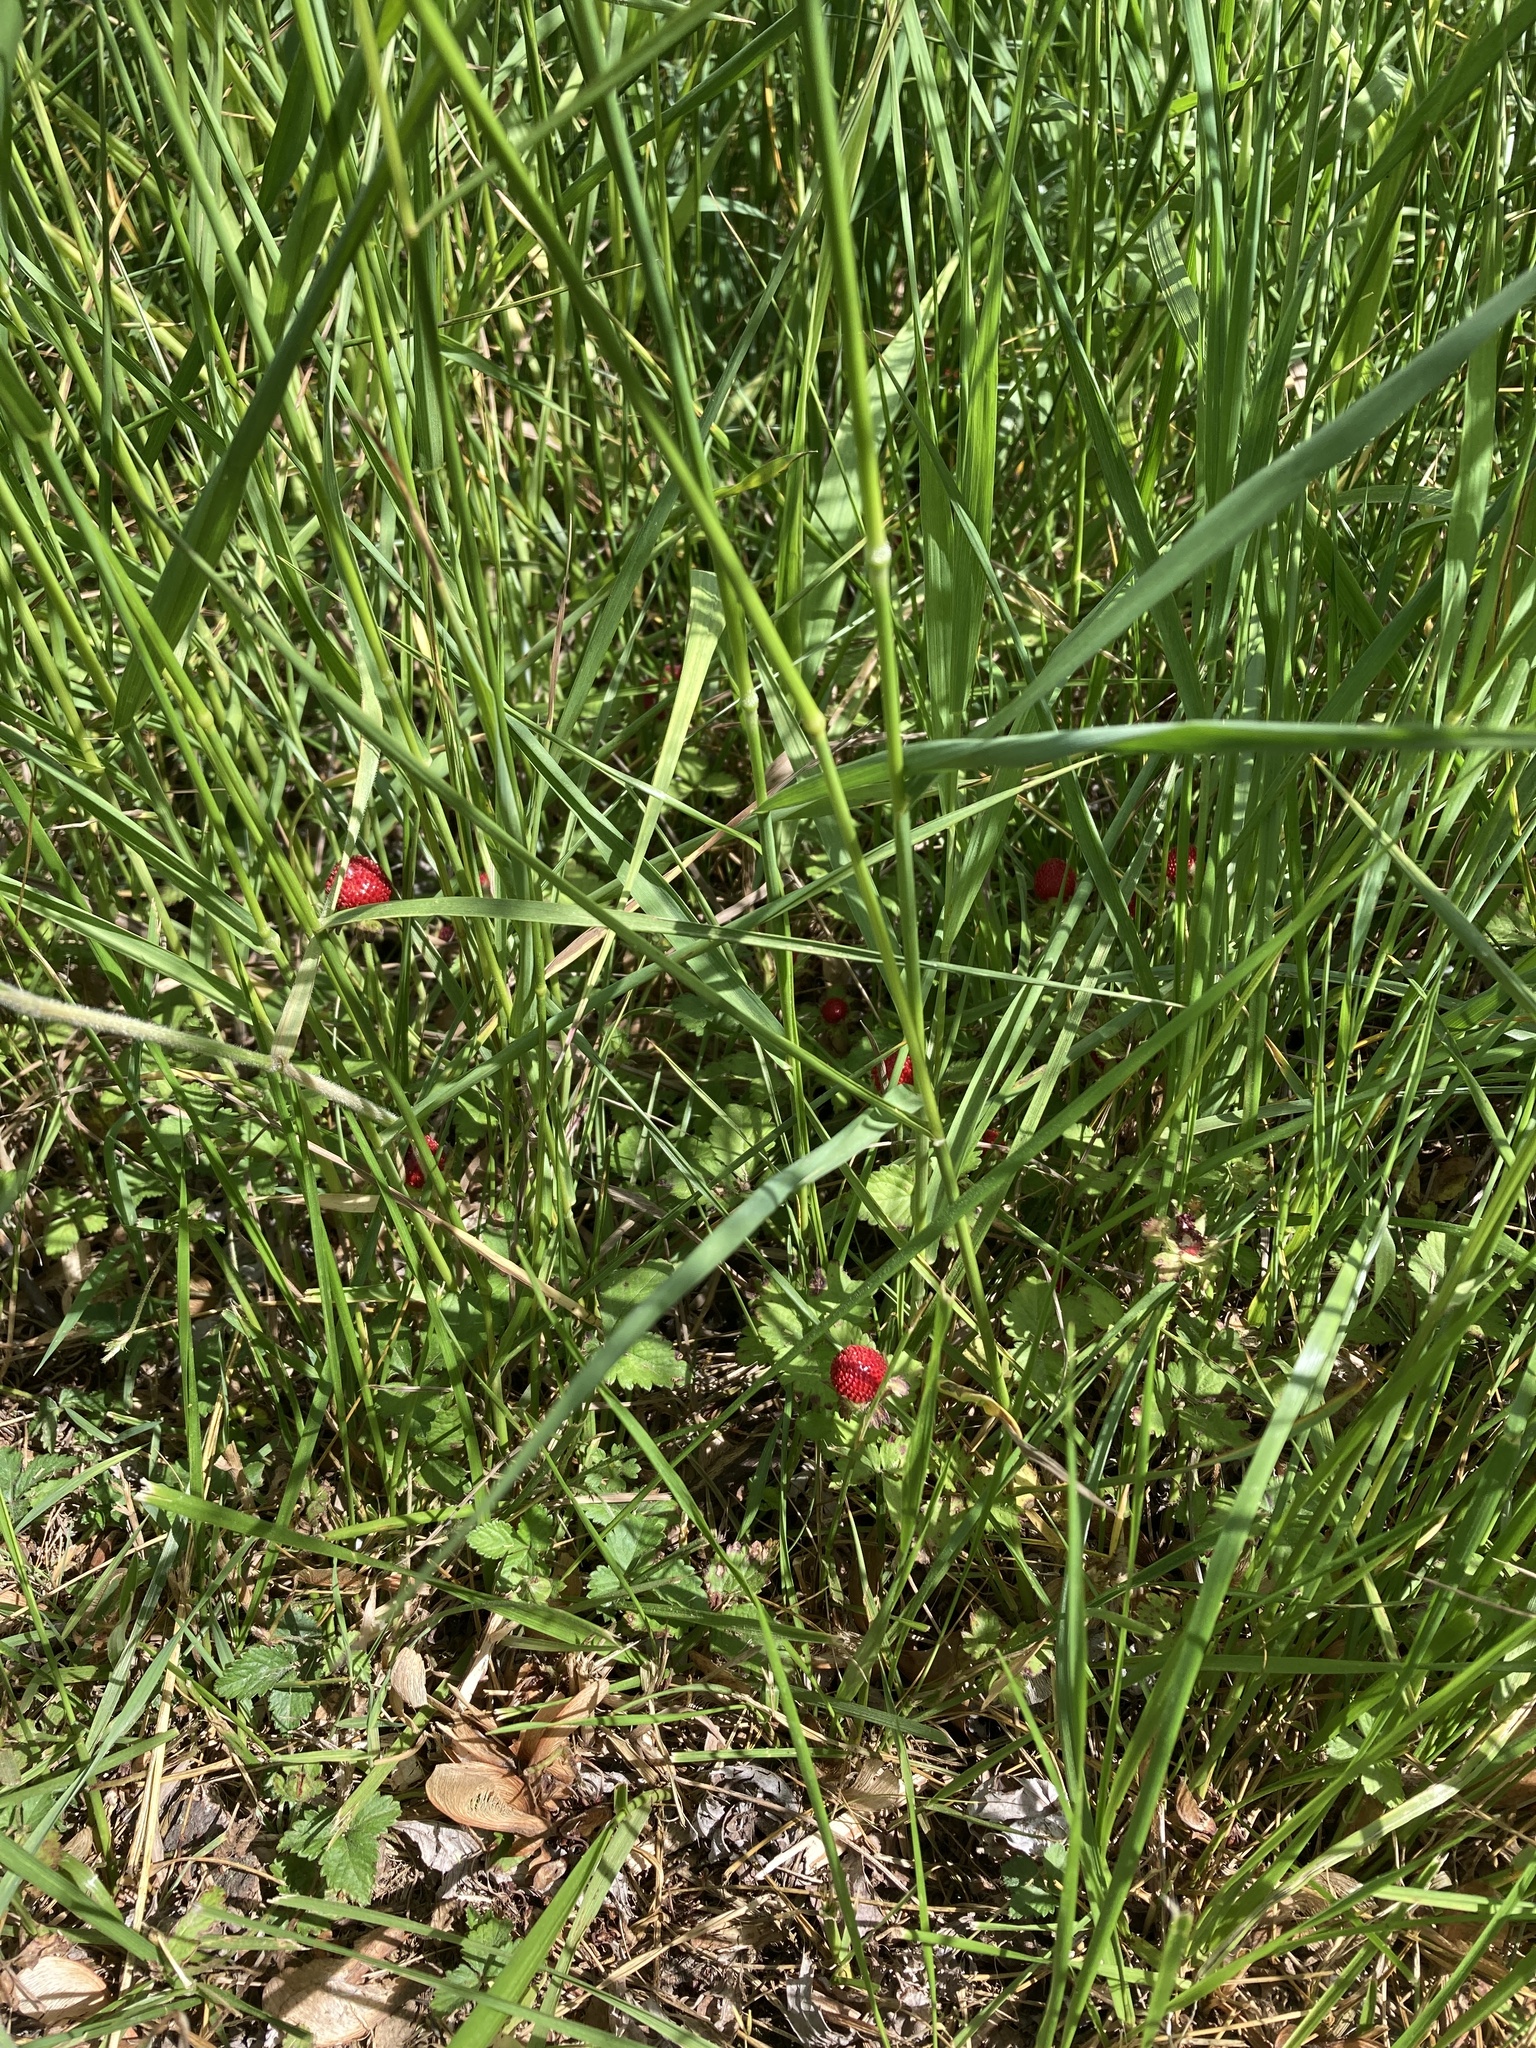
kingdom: Plantae
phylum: Tracheophyta
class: Magnoliopsida
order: Rosales
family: Rosaceae
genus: Potentilla
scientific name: Potentilla indica
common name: Yellow-flowered strawberry
